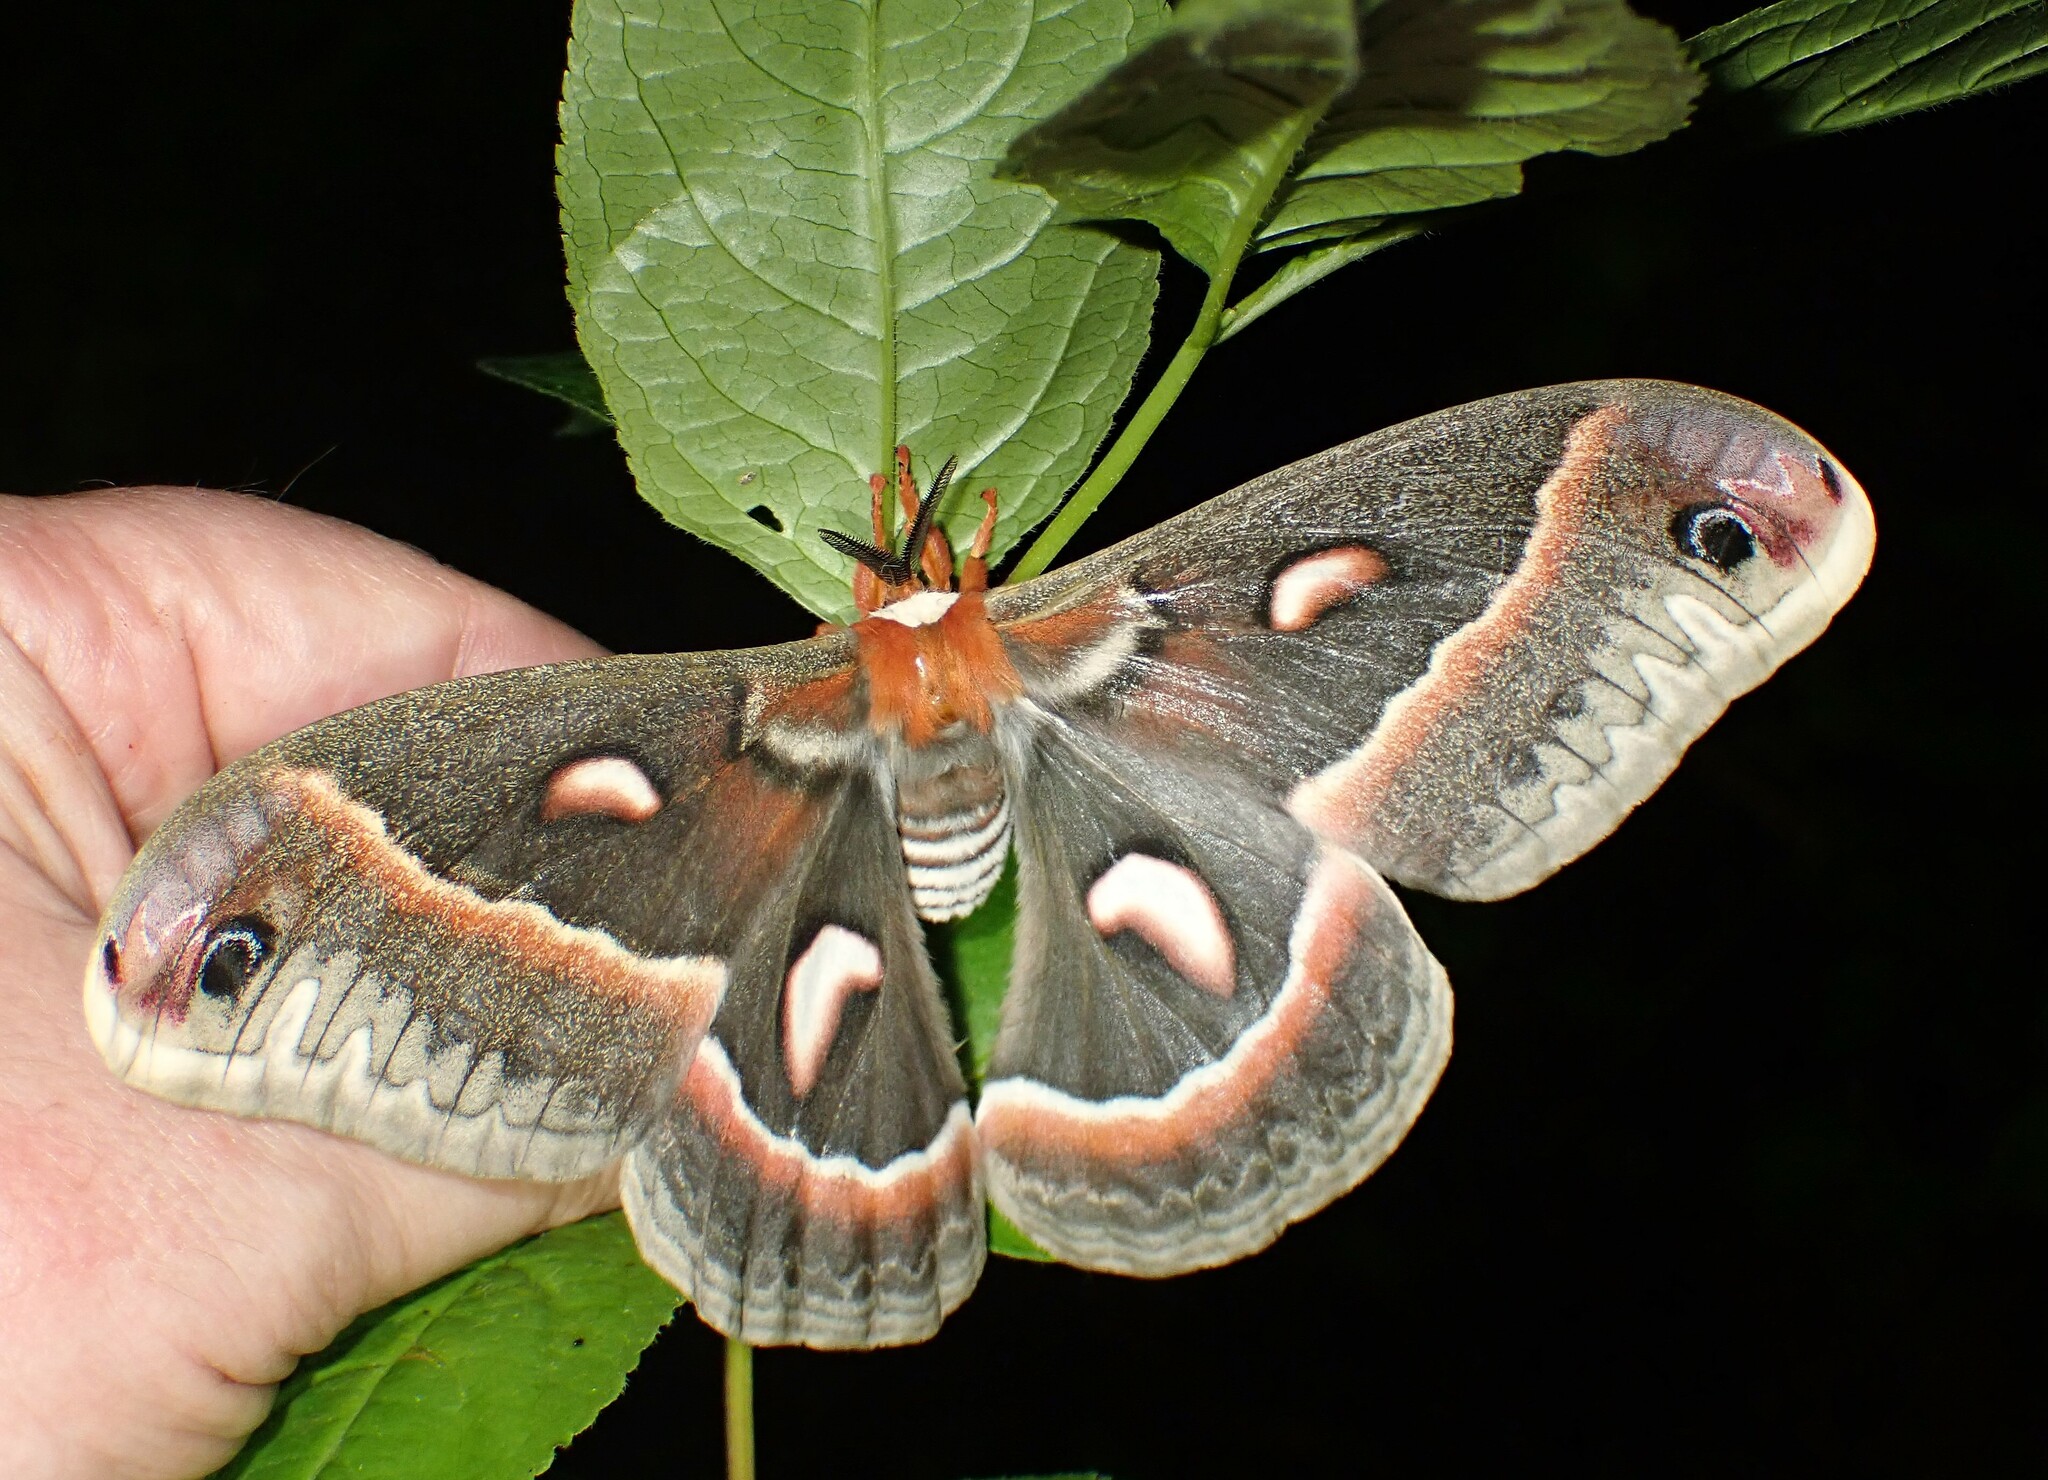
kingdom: Animalia
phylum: Arthropoda
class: Insecta
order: Lepidoptera
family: Saturniidae
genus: Hyalophora
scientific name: Hyalophora cecropia
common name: Cecropia silkmoth
